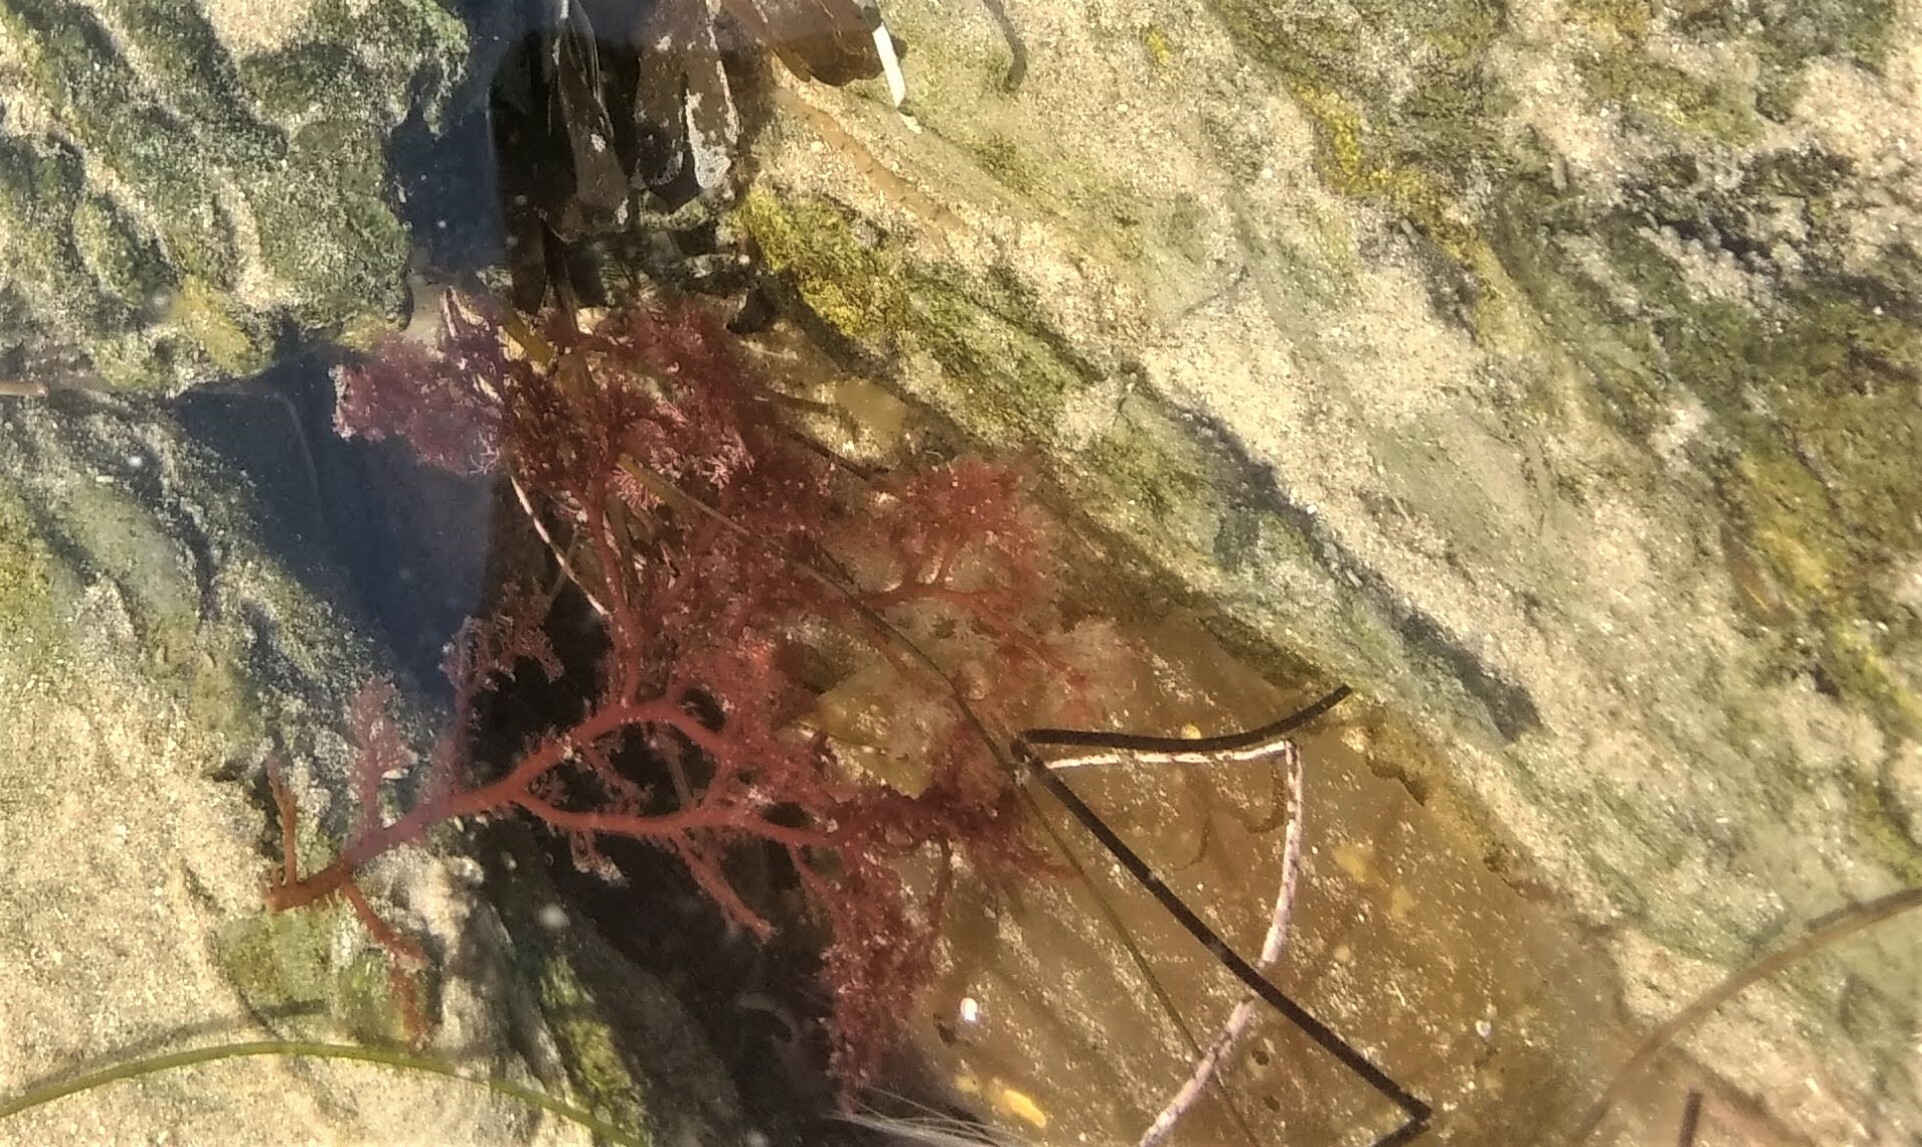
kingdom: Plantae
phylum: Rhodophyta
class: Florideophyceae
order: Plocamiales
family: Plocamiaceae
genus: Plocamium
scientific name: Plocamium cartilagineum
